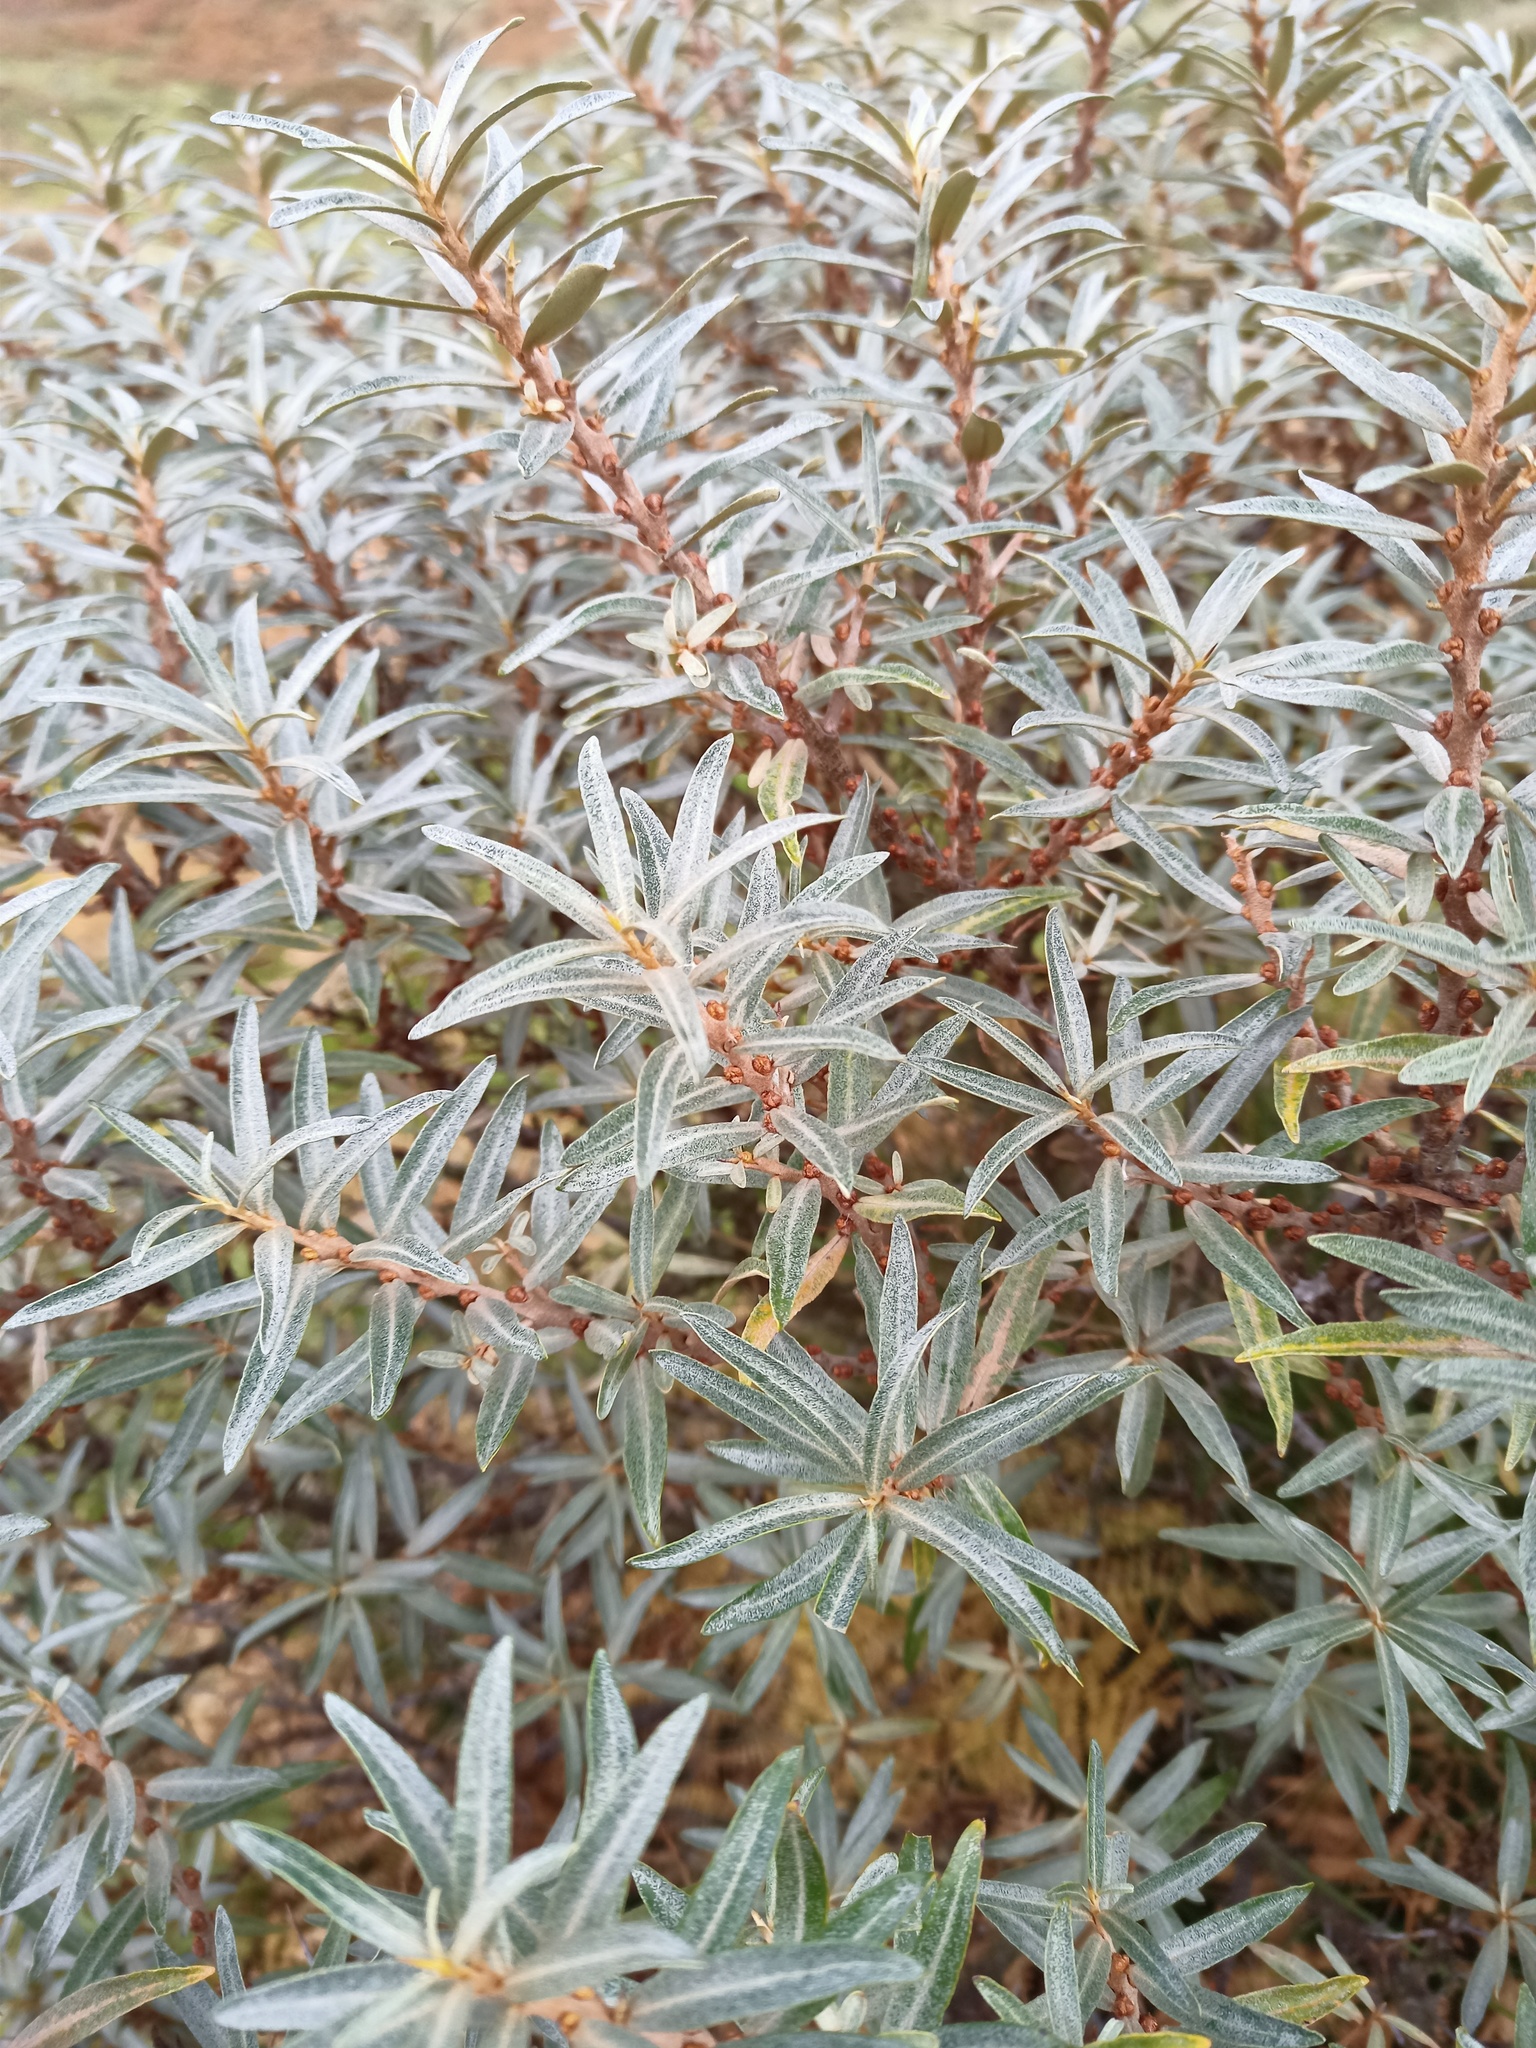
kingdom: Plantae
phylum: Tracheophyta
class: Magnoliopsida
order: Rosales
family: Elaeagnaceae
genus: Hippophae
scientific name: Hippophae rhamnoides
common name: Sea-buckthorn
